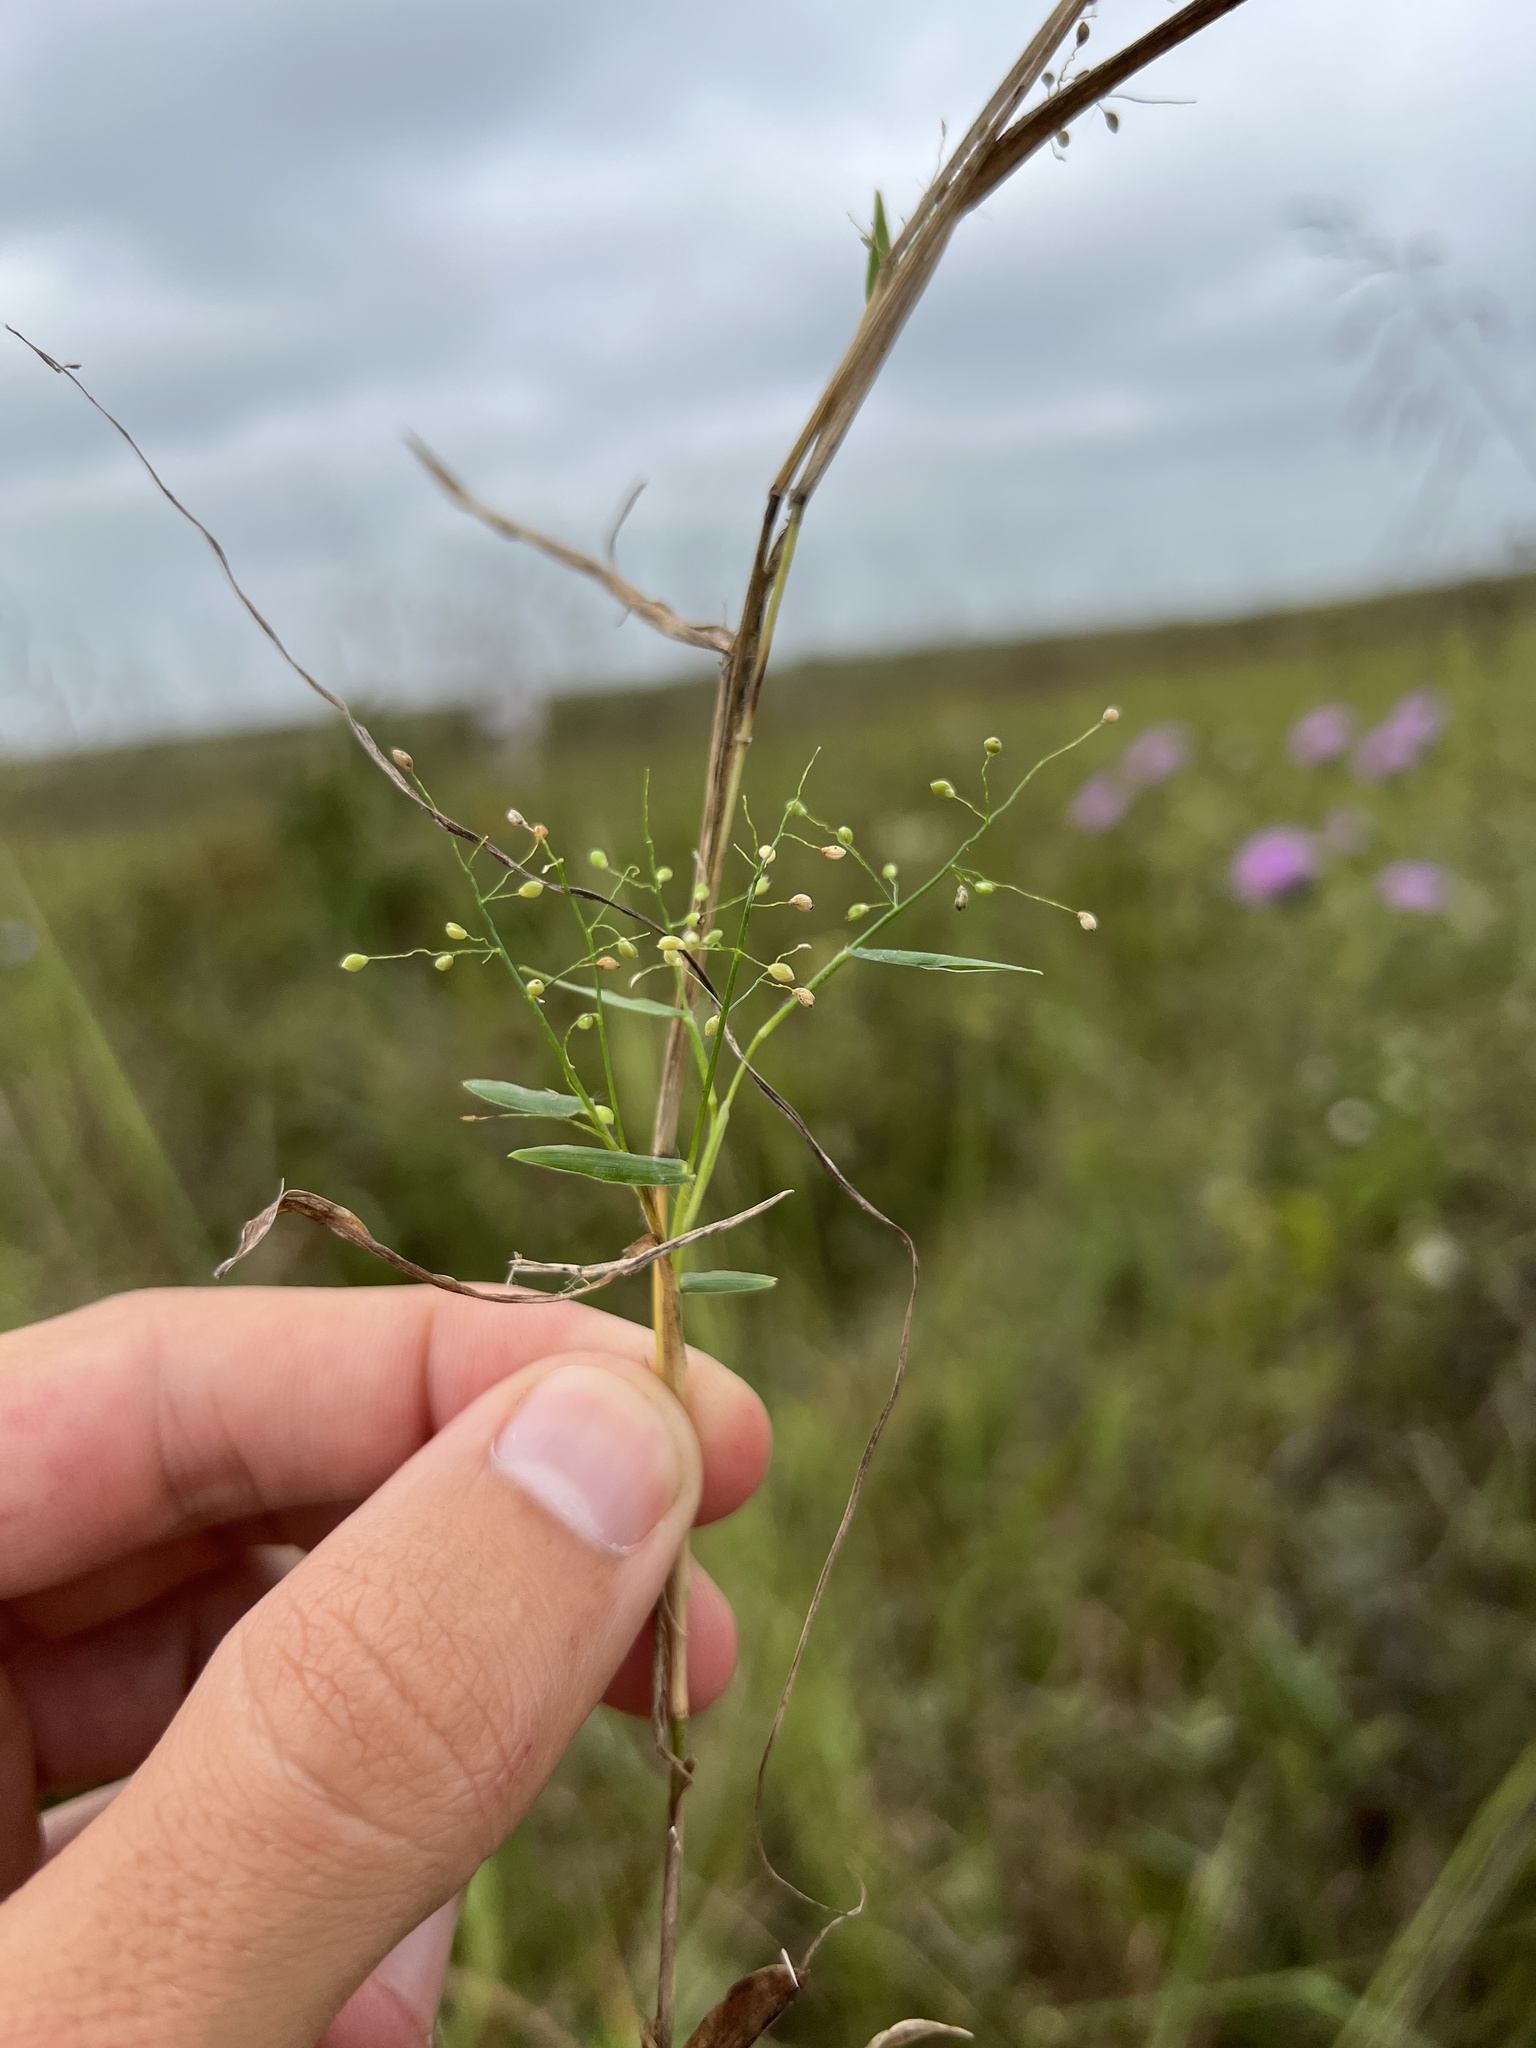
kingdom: Plantae
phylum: Tracheophyta
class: Liliopsida
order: Poales
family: Poaceae
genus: Dichanthelium
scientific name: Dichanthelium sphaerocarpon
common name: Round-fruited panicgrass
